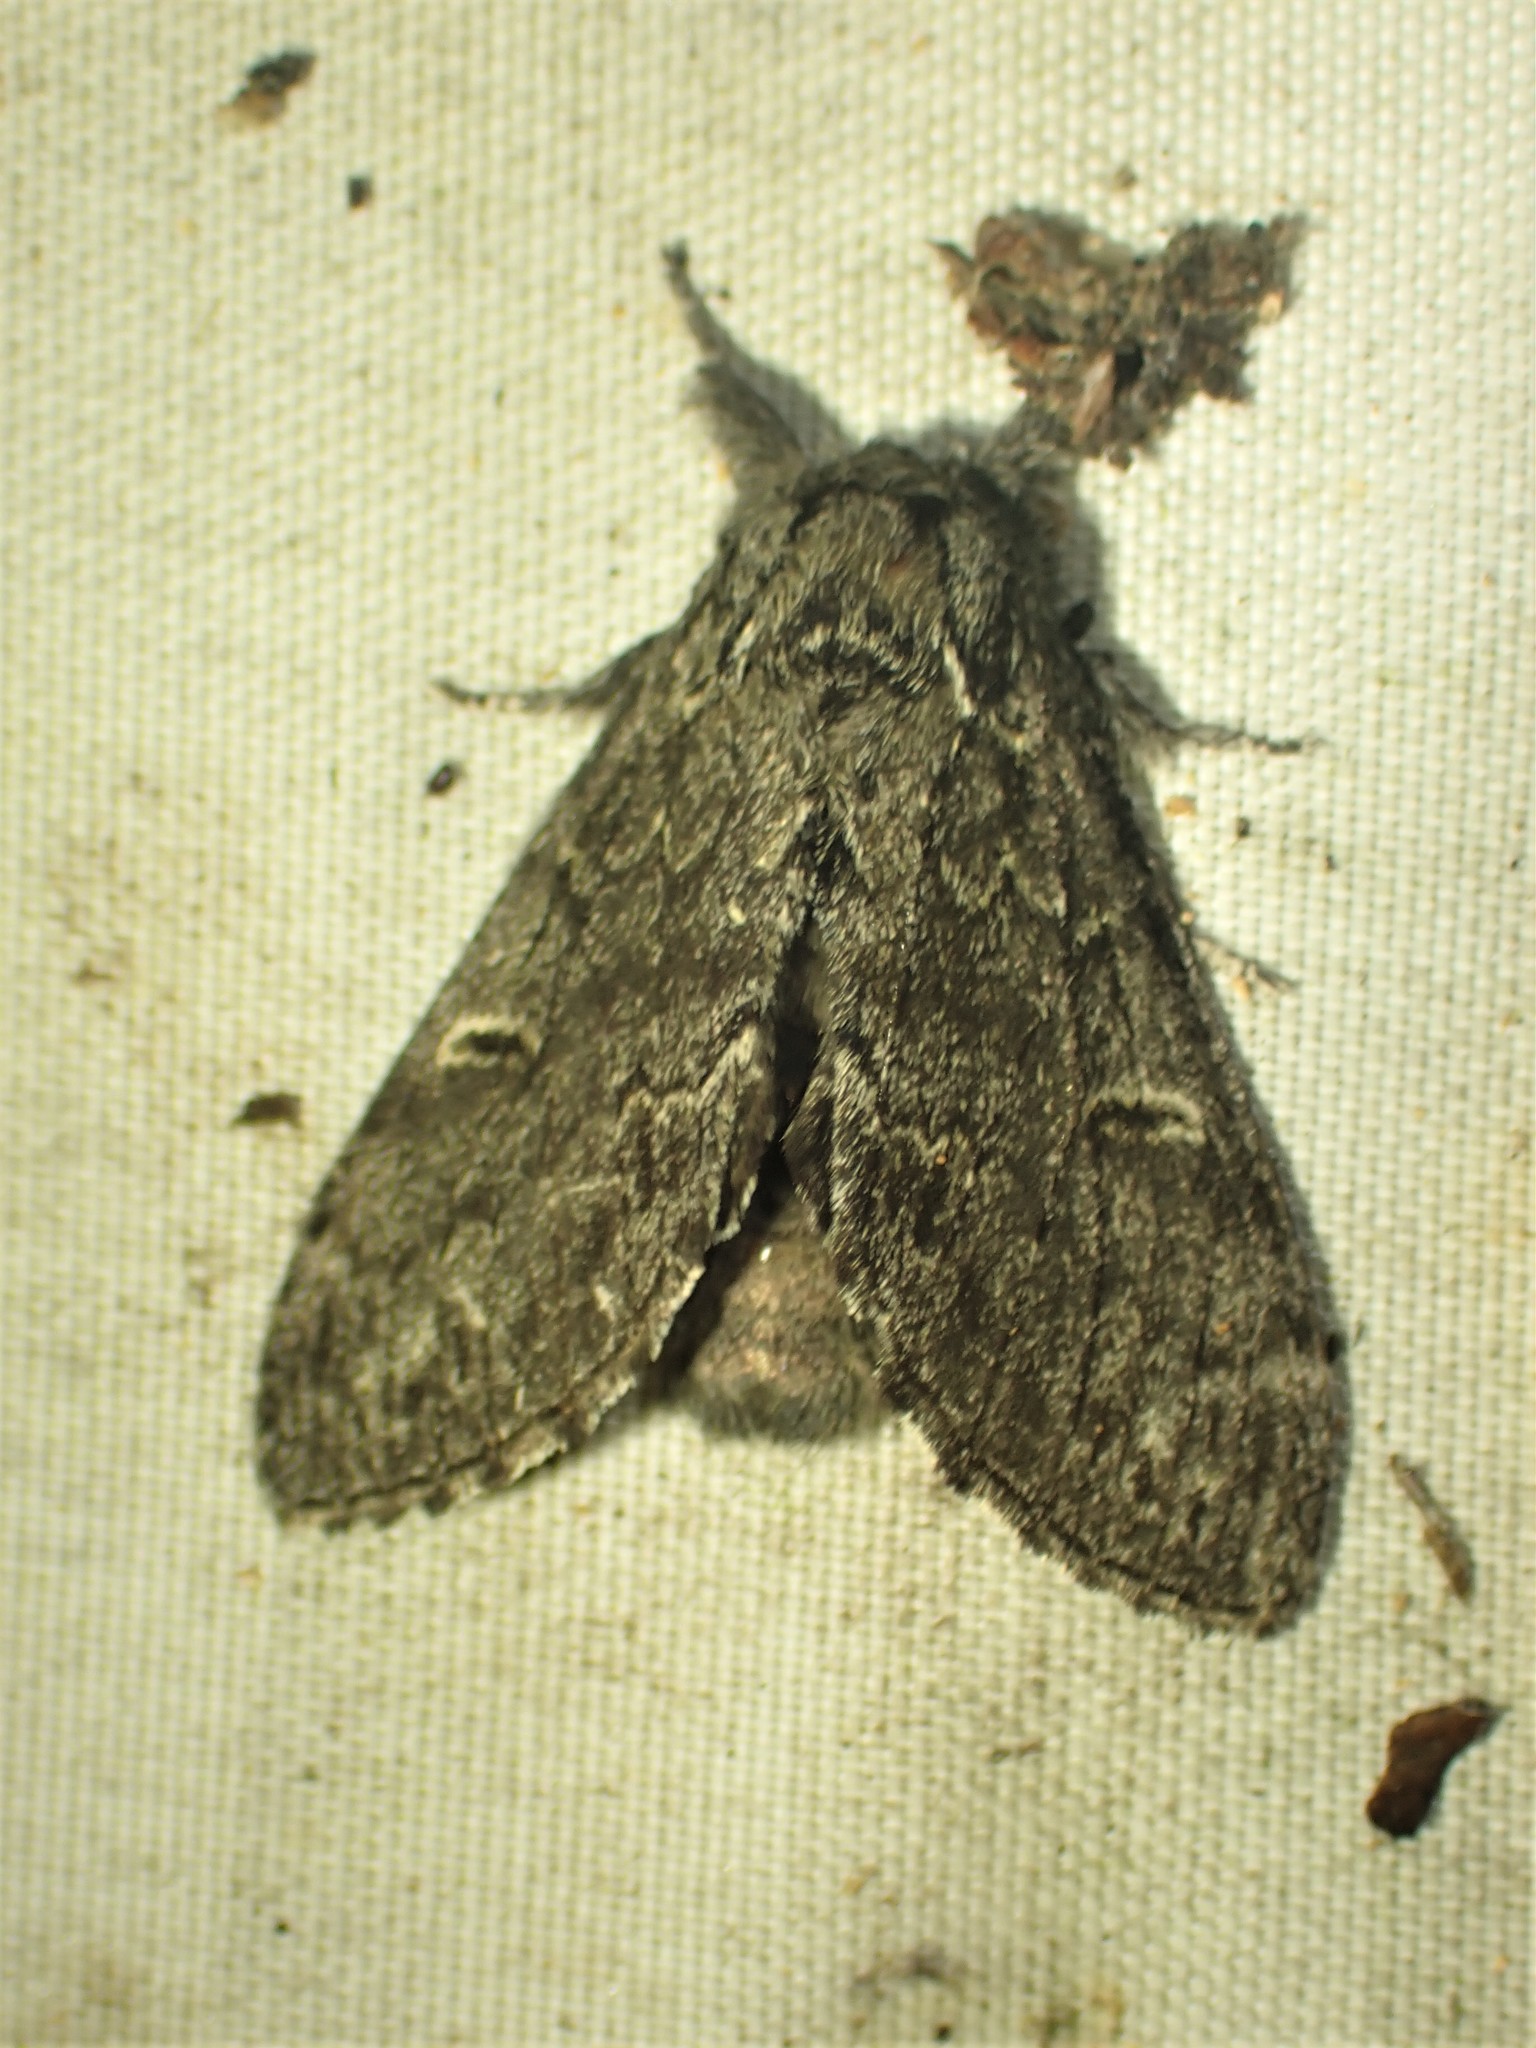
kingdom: Animalia
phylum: Arthropoda
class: Insecta
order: Lepidoptera
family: Notodontidae
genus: Notodonta
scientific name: Notodonta torva
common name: Large dark prominent
